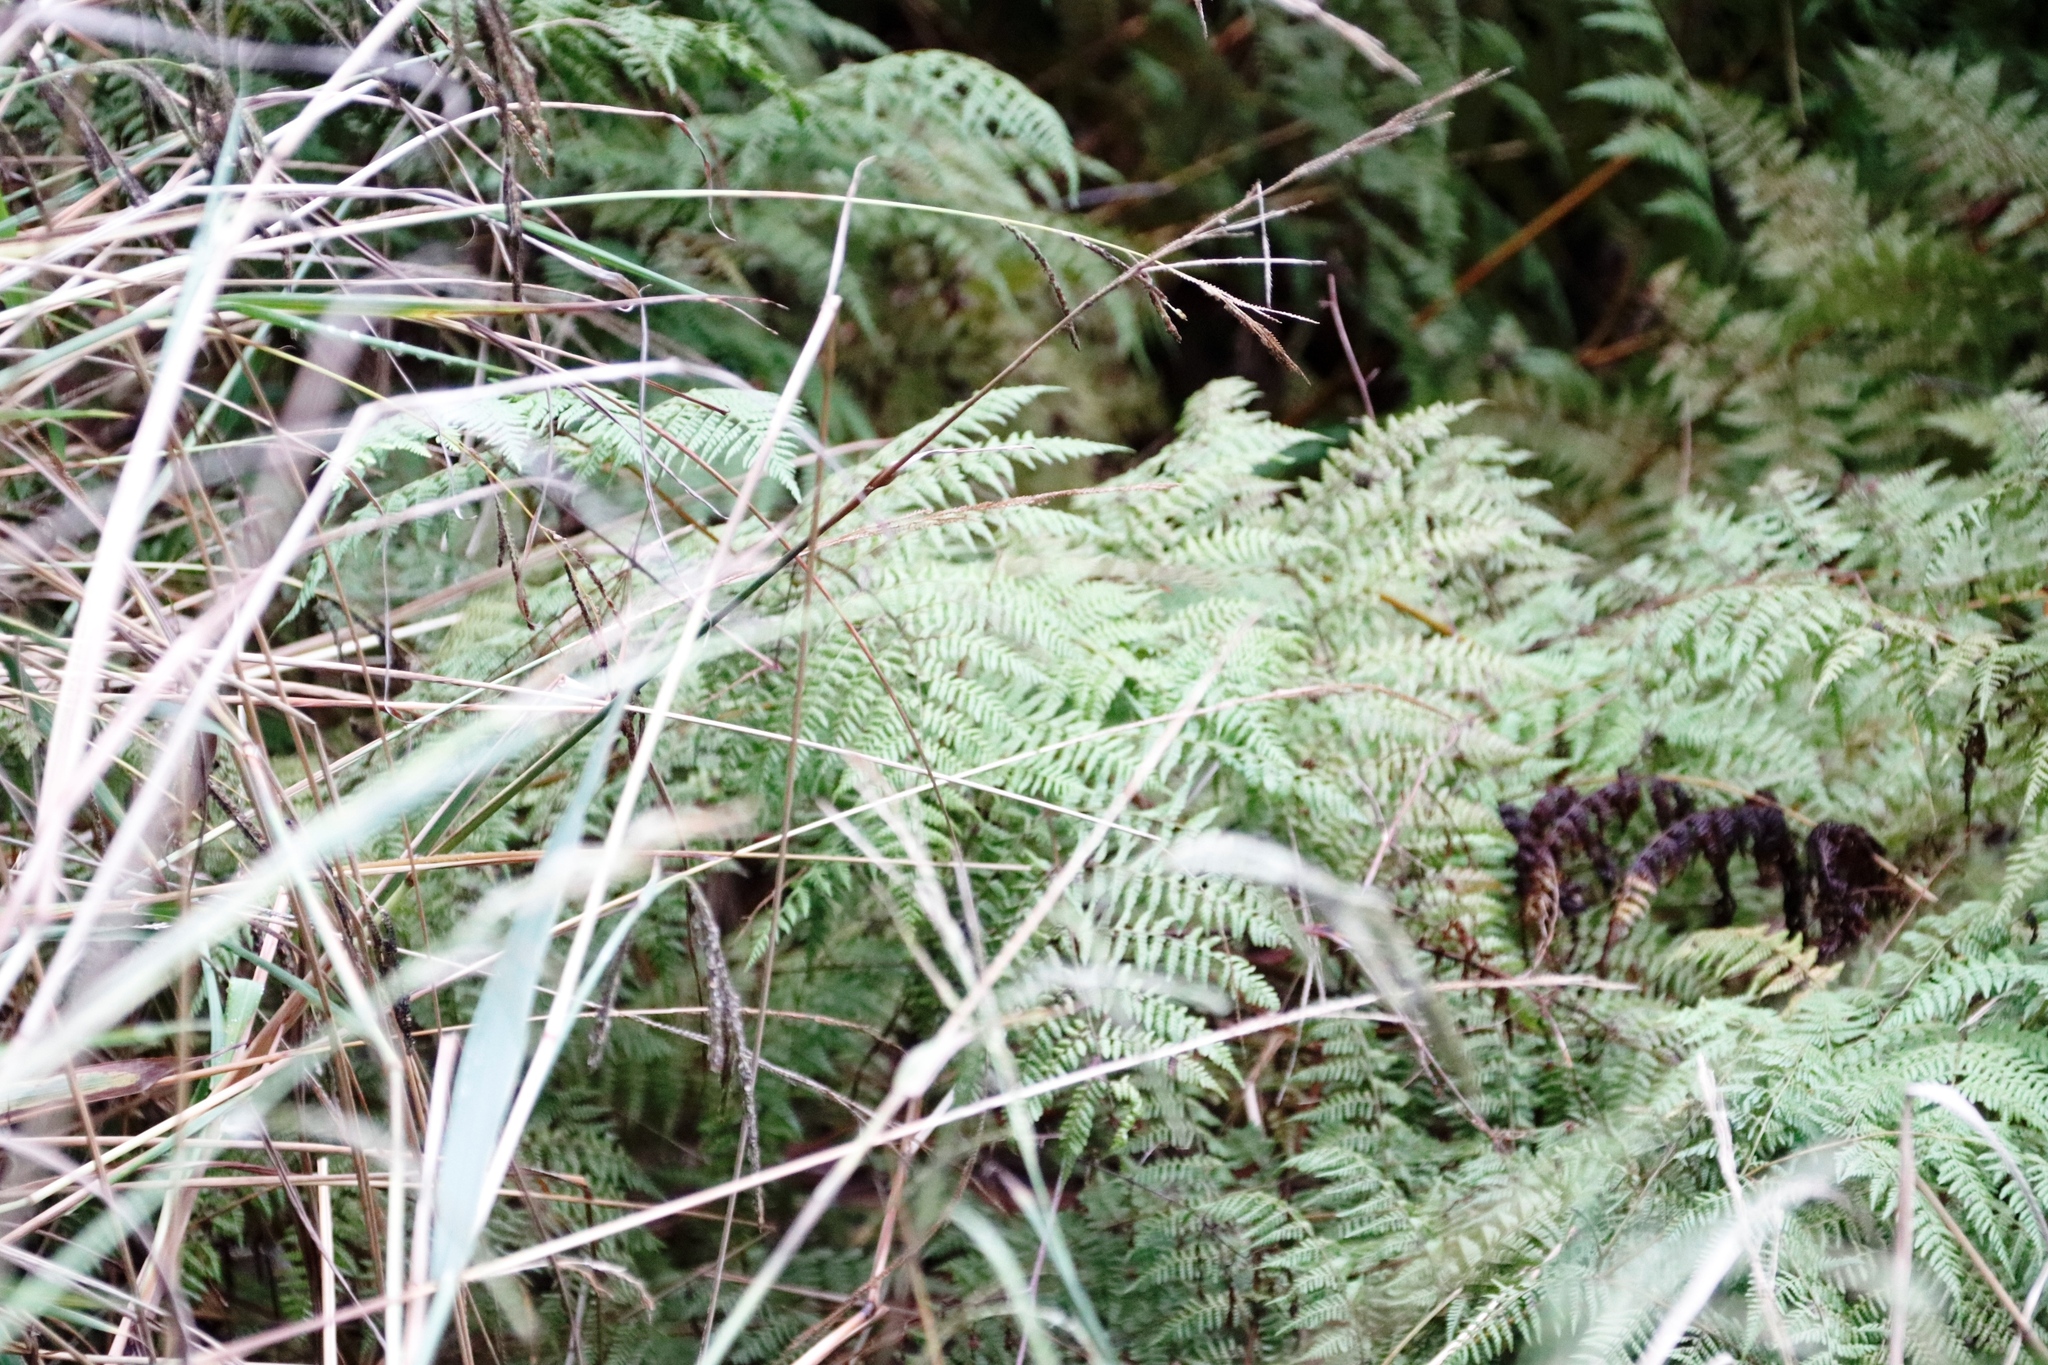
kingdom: Plantae
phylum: Tracheophyta
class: Polypodiopsida
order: Polypodiales
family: Dennstaedtiaceae
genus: Pteridium
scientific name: Pteridium aquilinum
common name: Bracken
